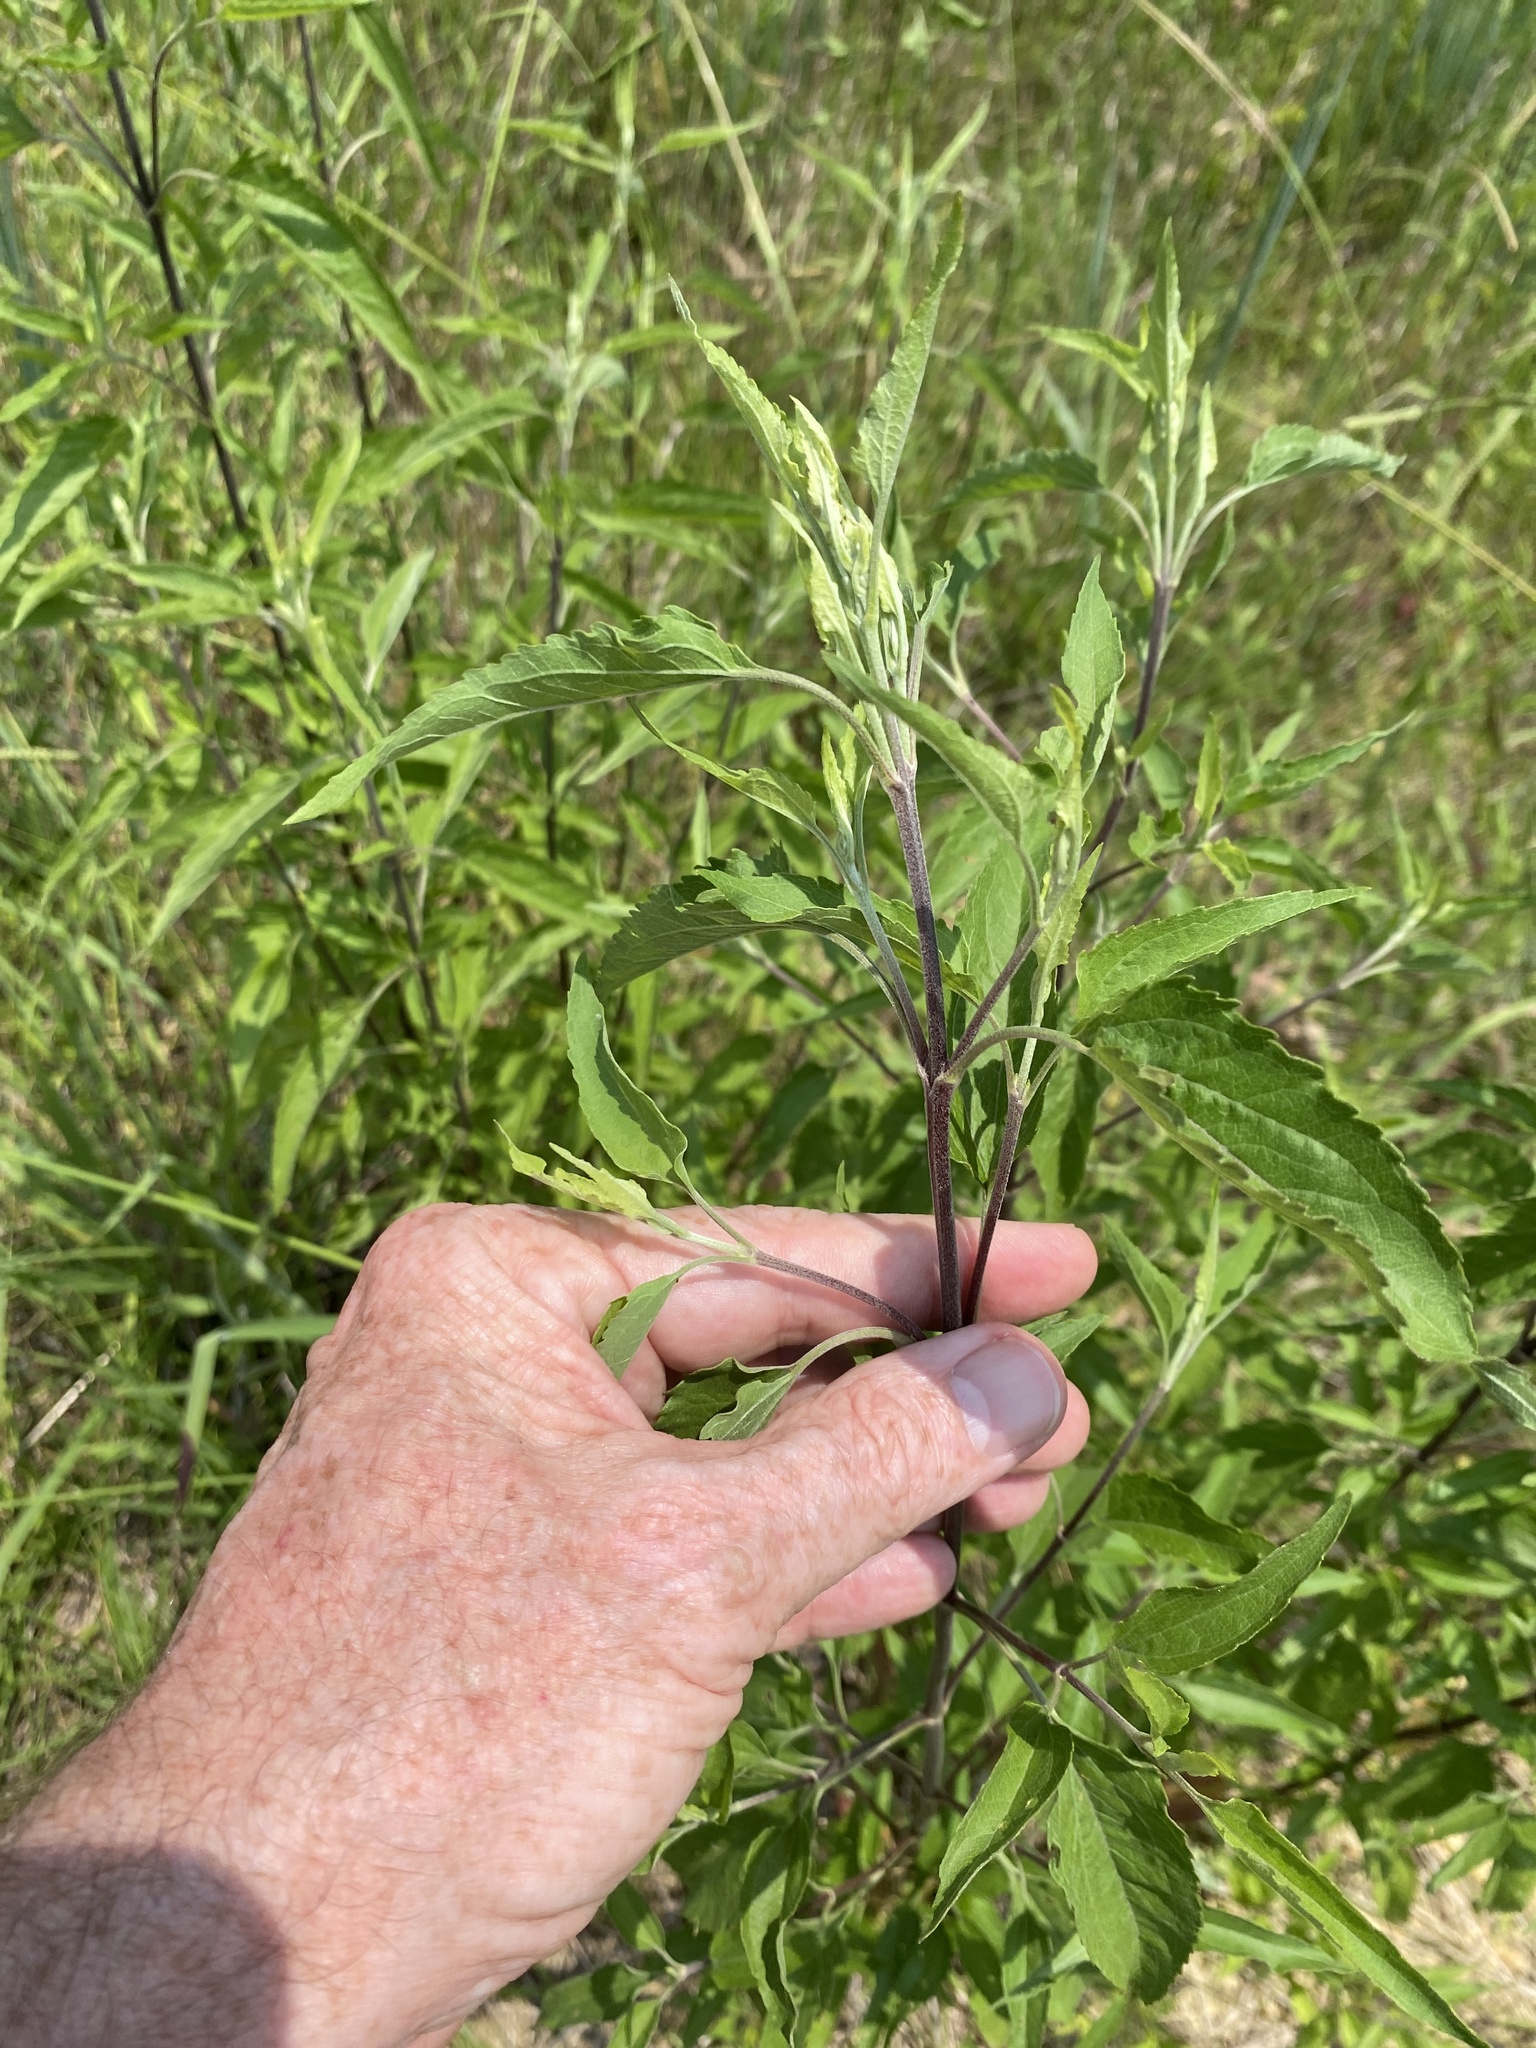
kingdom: Plantae
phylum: Tracheophyta
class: Magnoliopsida
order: Asterales
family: Asteraceae
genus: Eupatorium
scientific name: Eupatorium serotinum
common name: Late boneset
